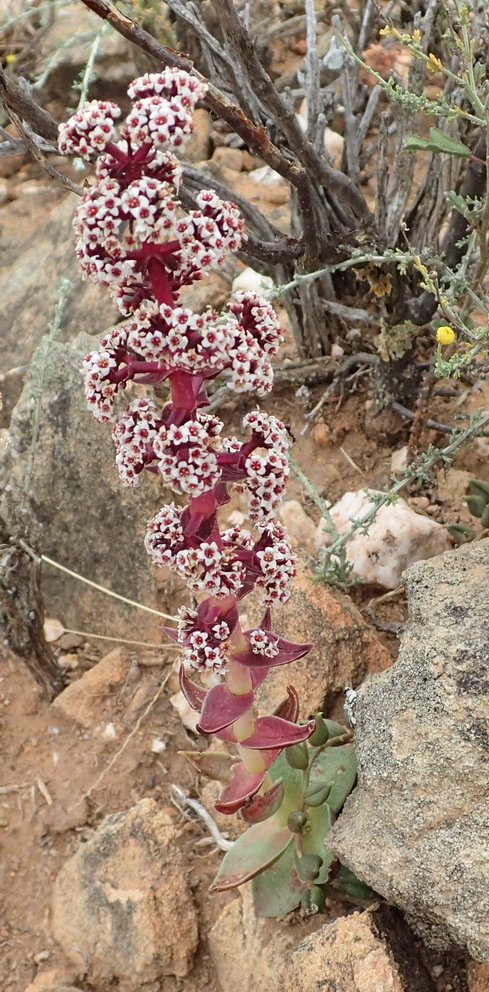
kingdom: Plantae
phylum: Tracheophyta
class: Magnoliopsida
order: Saxifragales
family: Crassulaceae
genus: Crassula
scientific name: Crassula capitella
